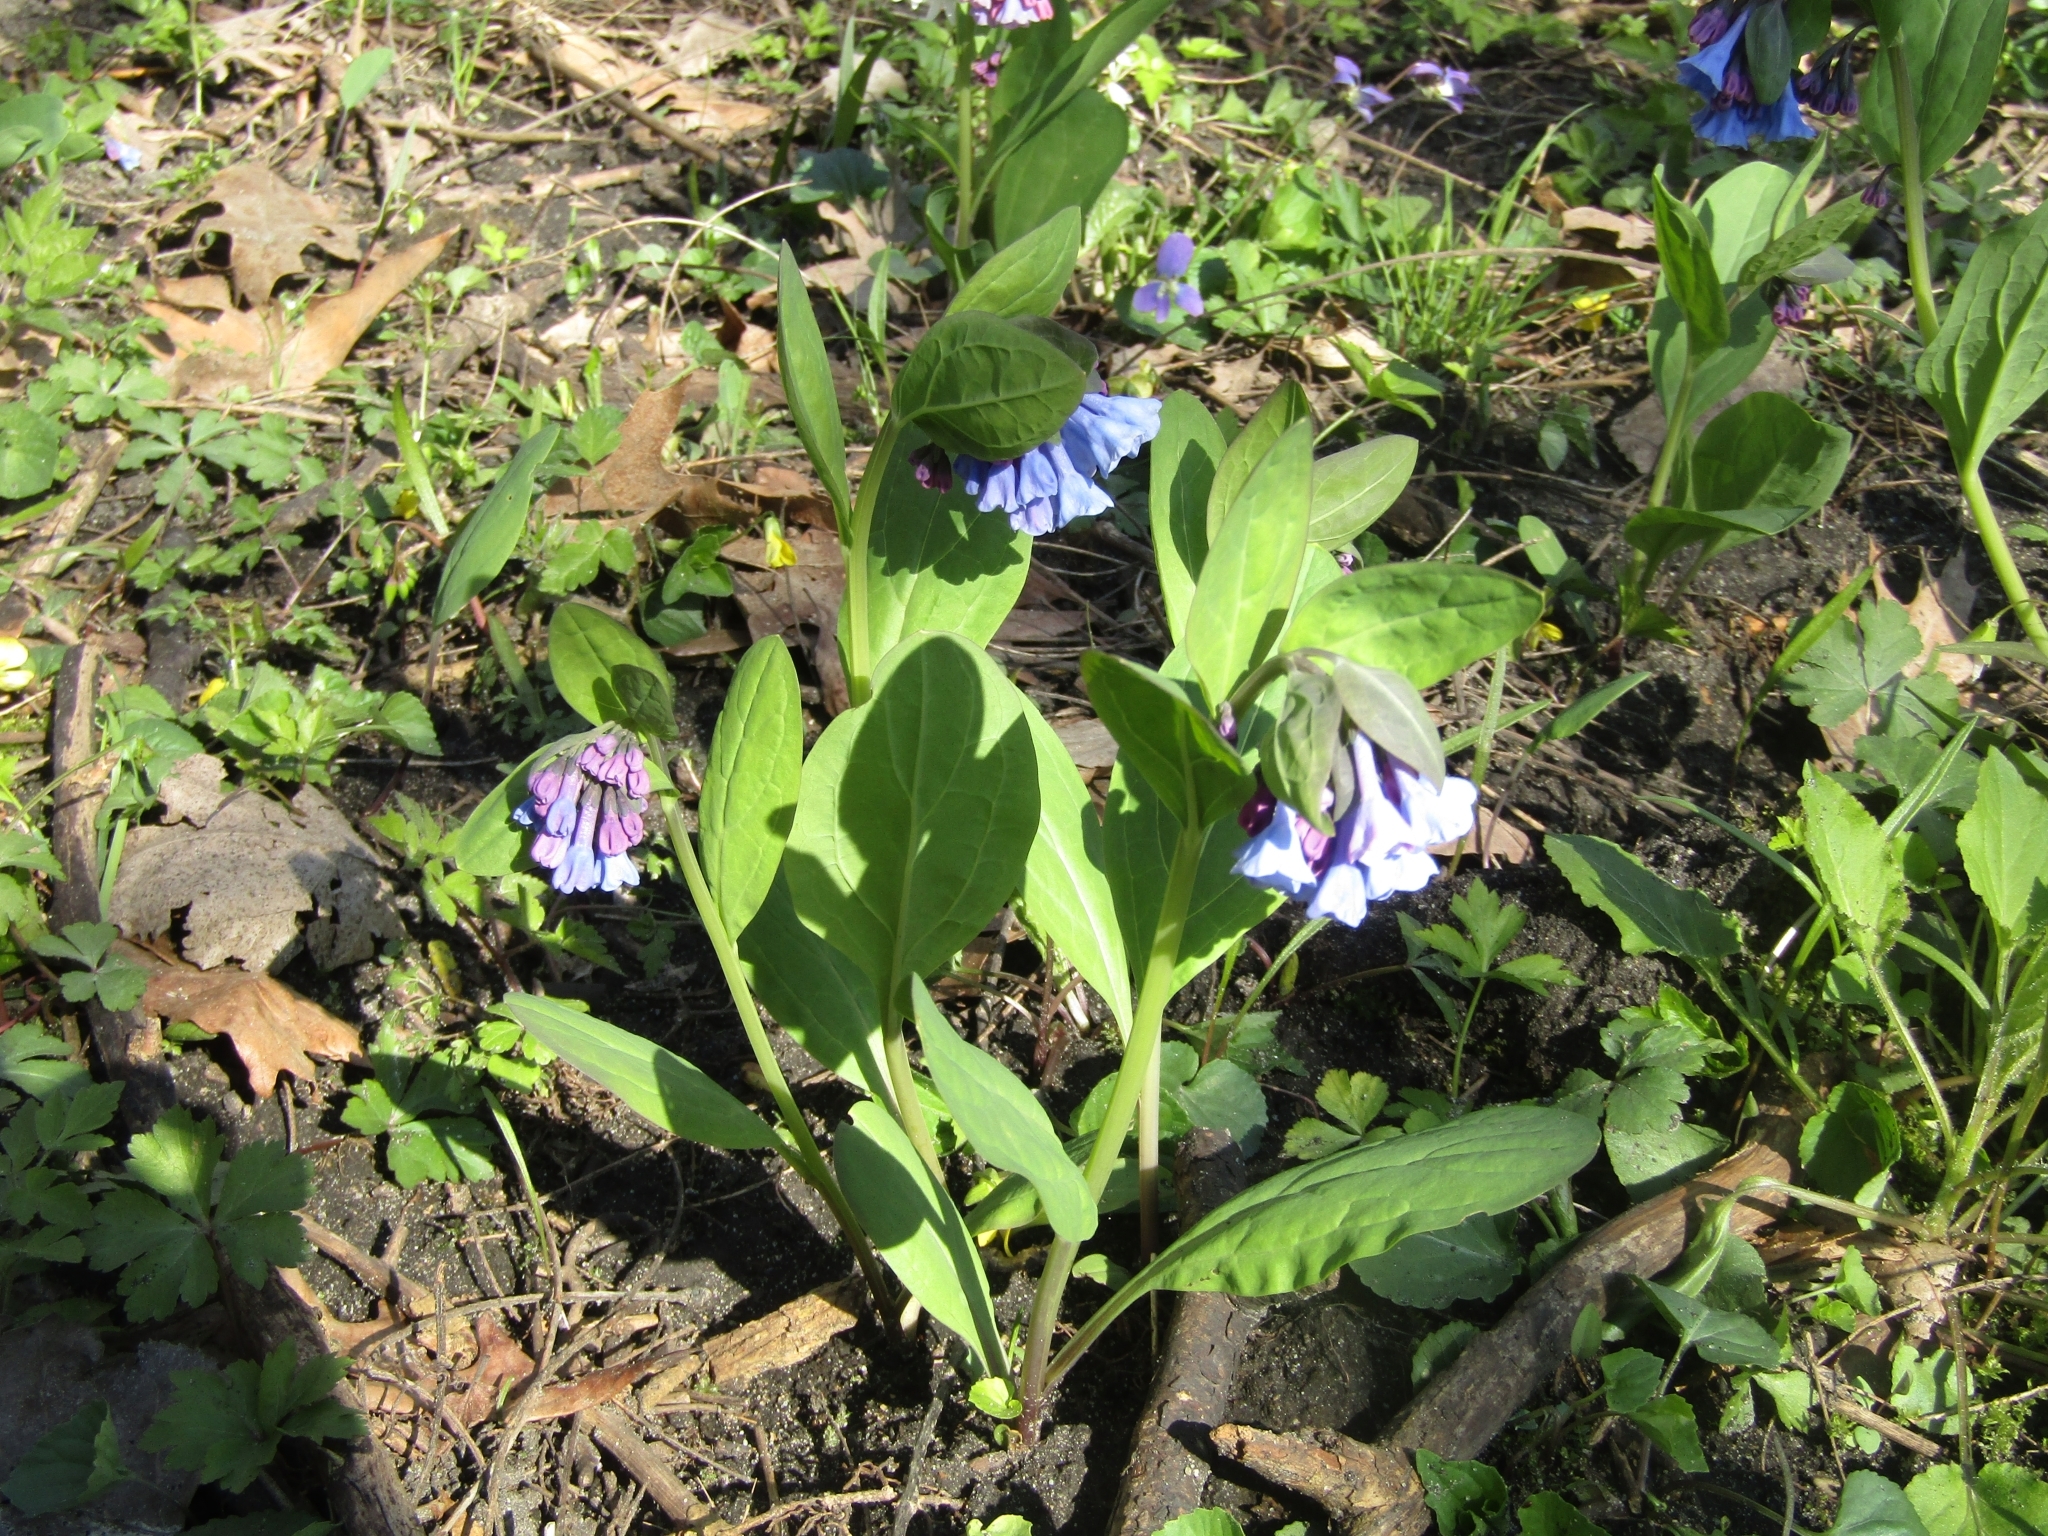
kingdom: Plantae
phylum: Tracheophyta
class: Magnoliopsida
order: Boraginales
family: Boraginaceae
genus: Mertensia
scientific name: Mertensia virginica
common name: Virginia bluebells
